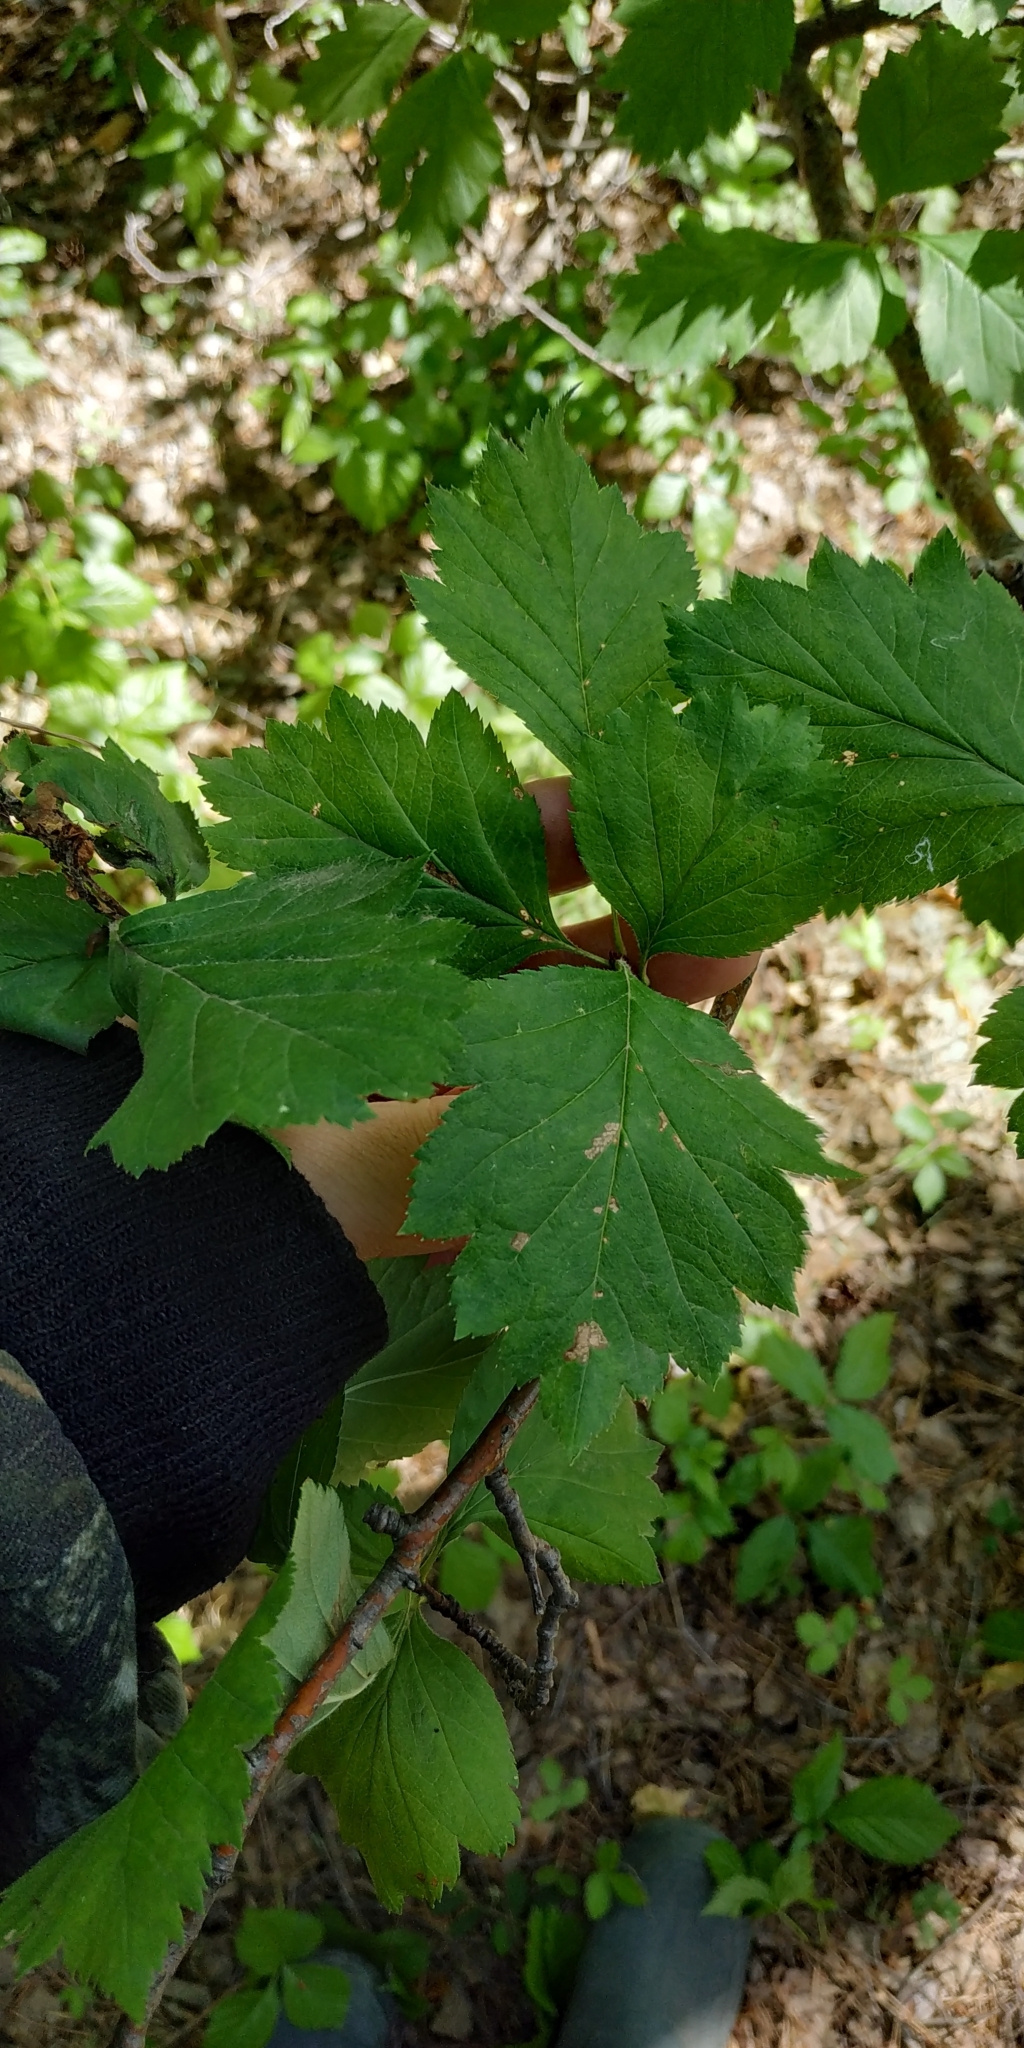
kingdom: Plantae
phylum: Tracheophyta
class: Magnoliopsida
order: Rosales
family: Rosaceae
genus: Crataegus
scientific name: Crataegus sanguinea
